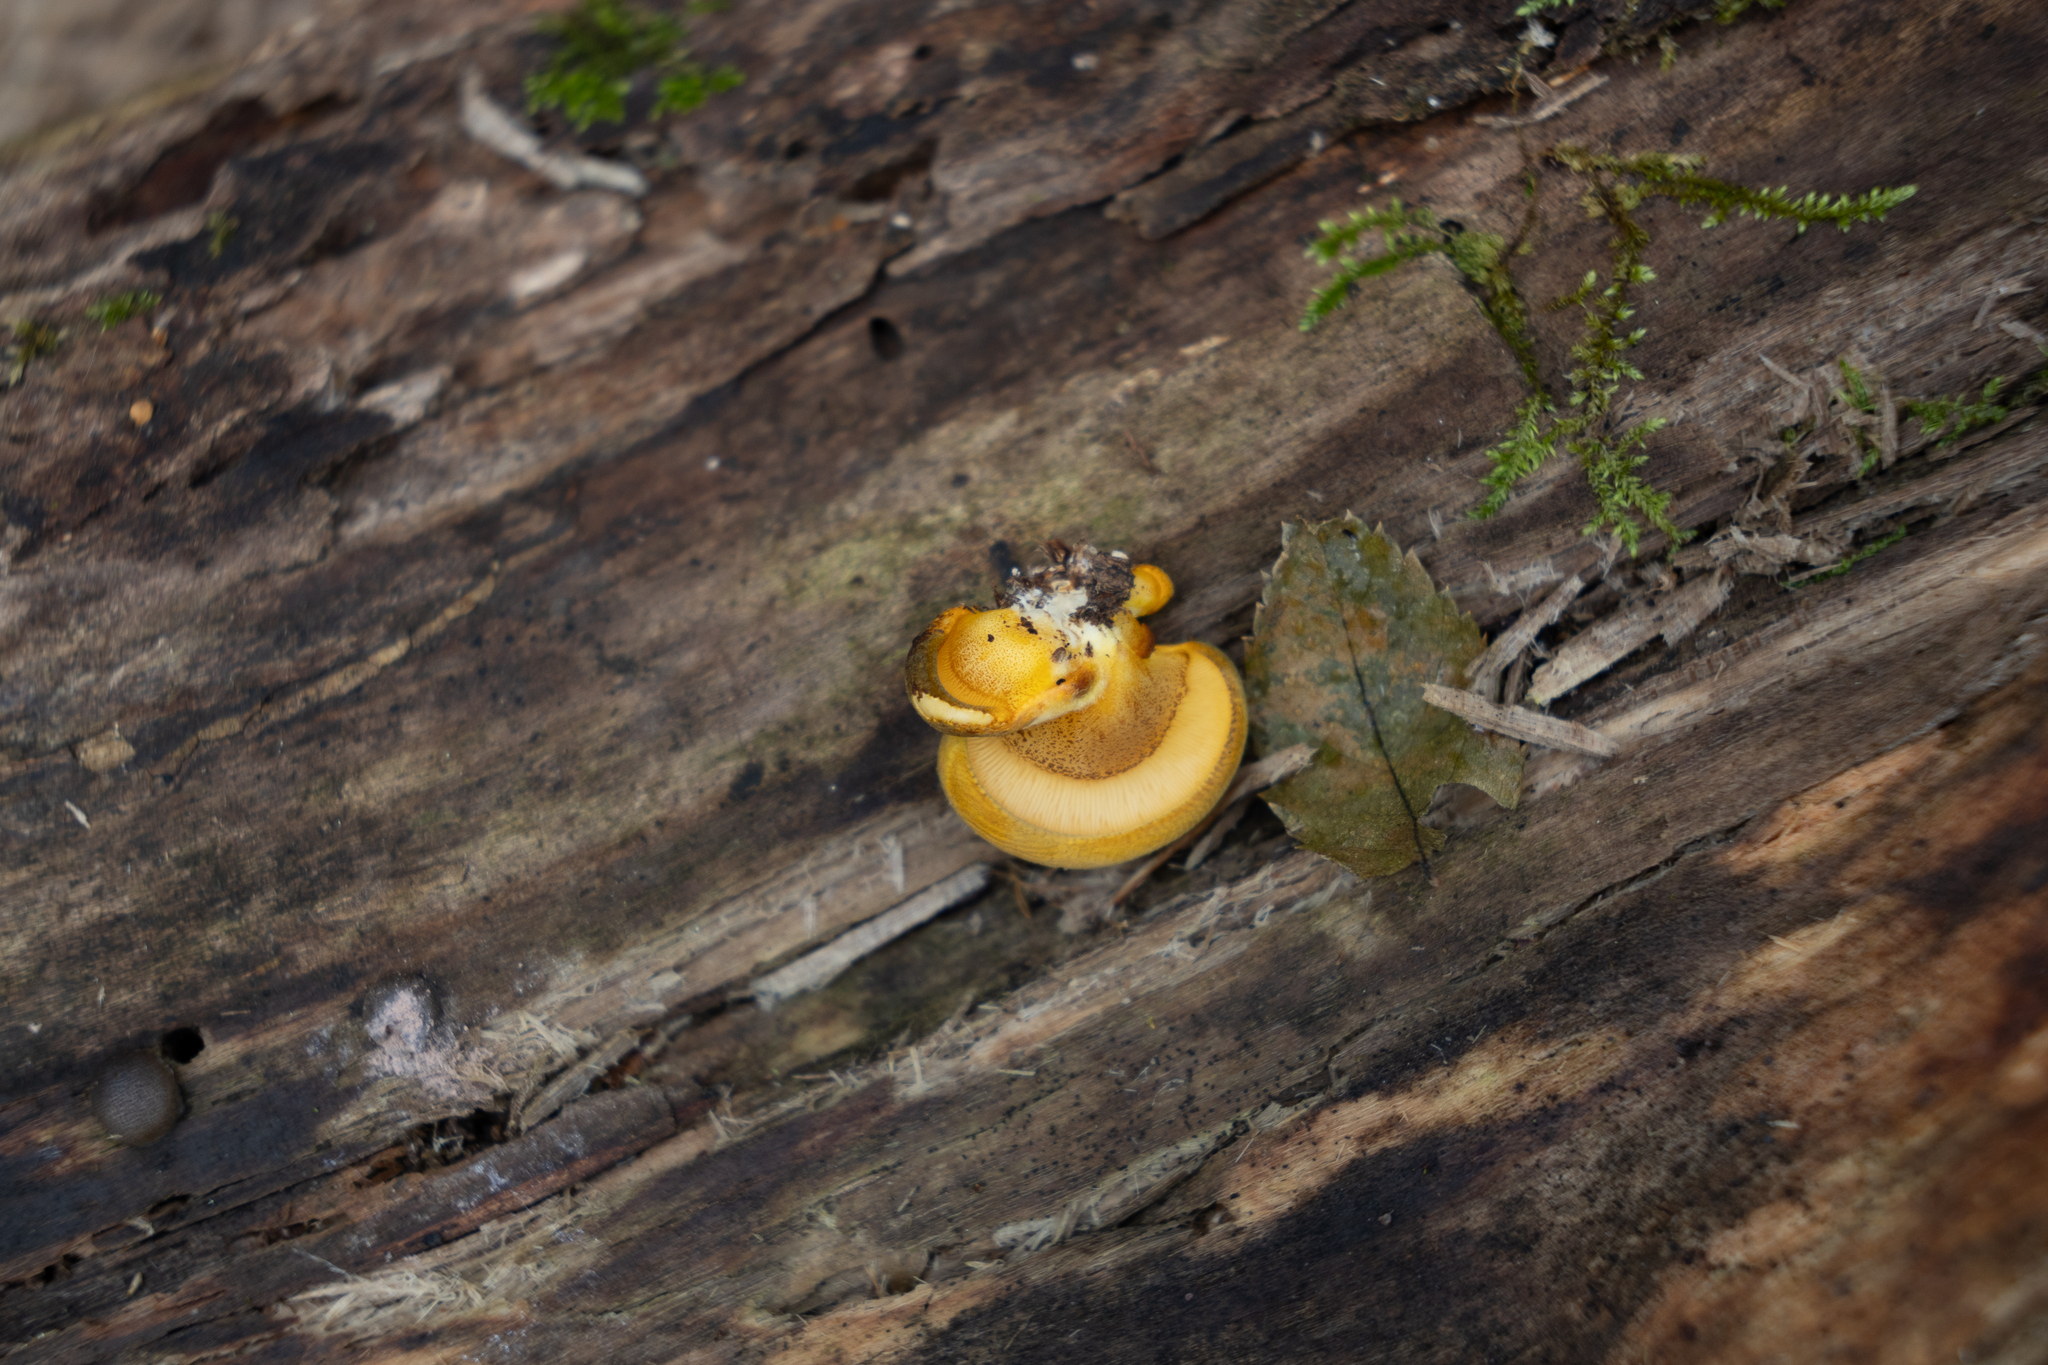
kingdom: Fungi
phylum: Basidiomycota
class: Agaricomycetes
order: Agaricales
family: Sarcomyxaceae
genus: Sarcomyxa
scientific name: Sarcomyxa serotina
